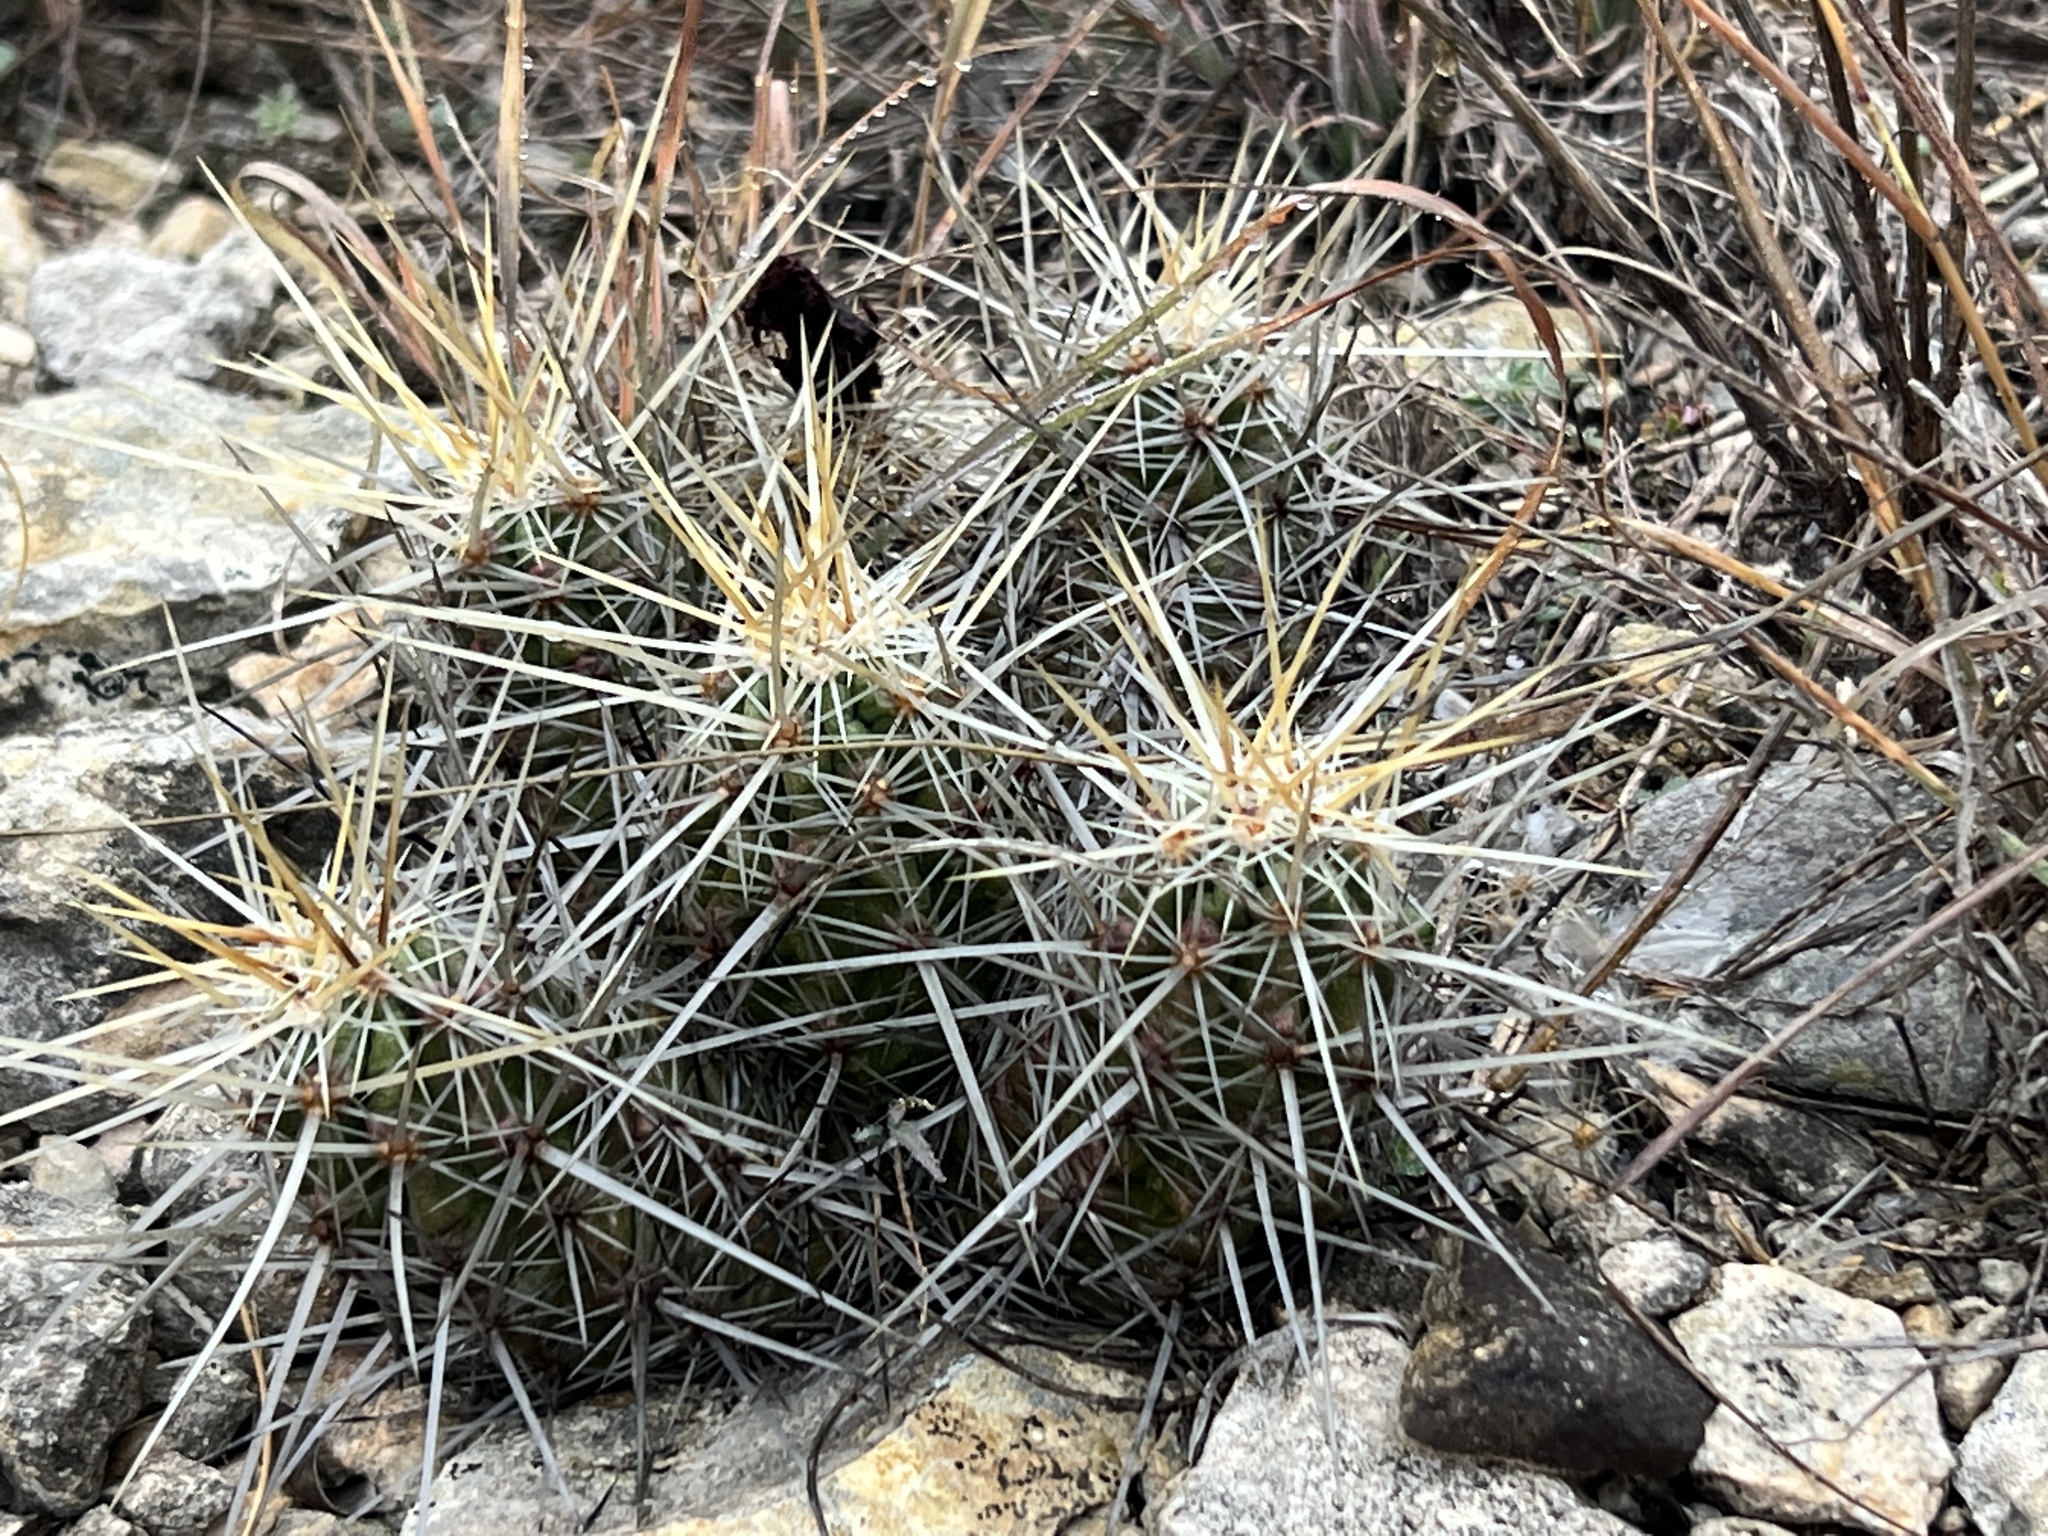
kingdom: Plantae
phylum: Tracheophyta
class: Magnoliopsida
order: Caryophyllales
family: Cactaceae
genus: Echinocereus
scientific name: Echinocereus enneacanthus
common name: Pitaya
